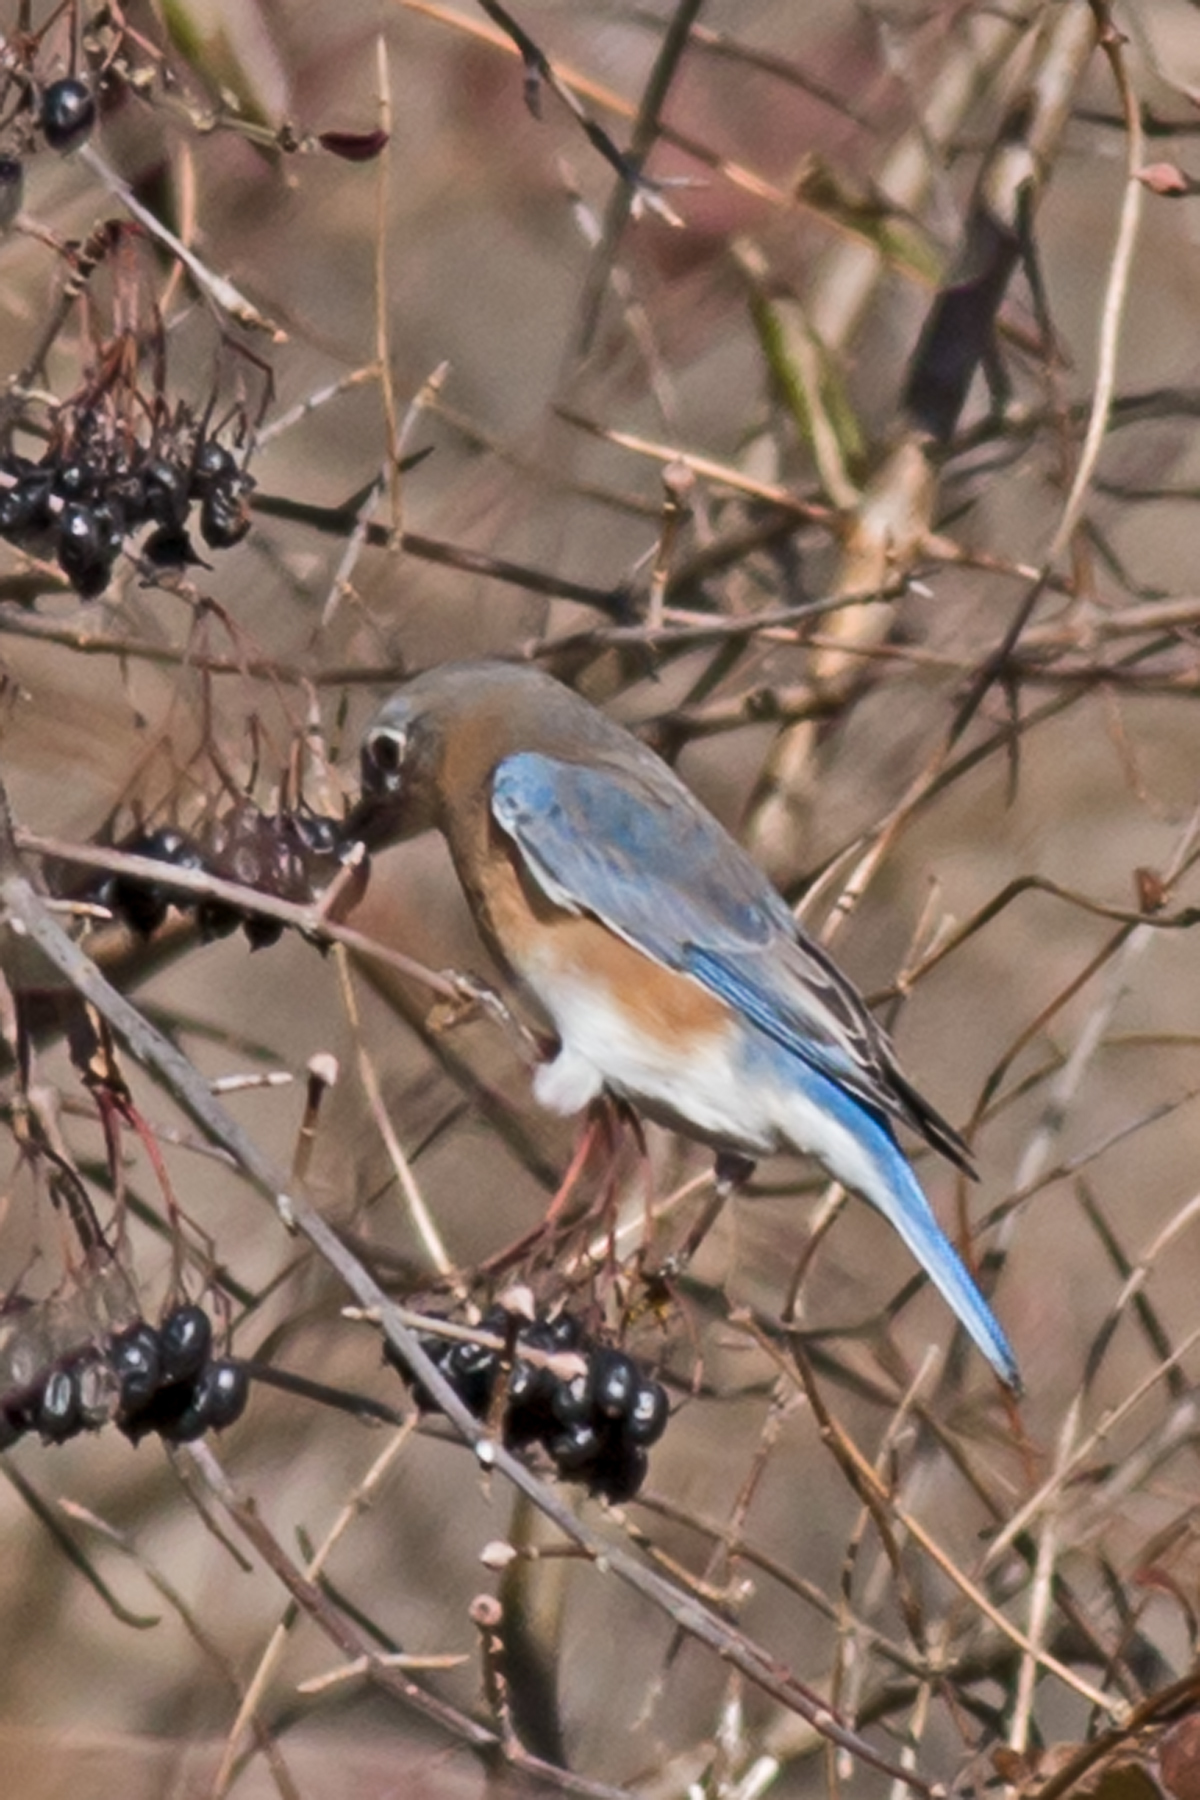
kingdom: Animalia
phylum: Chordata
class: Aves
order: Passeriformes
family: Turdidae
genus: Sialia
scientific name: Sialia sialis
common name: Eastern bluebird
